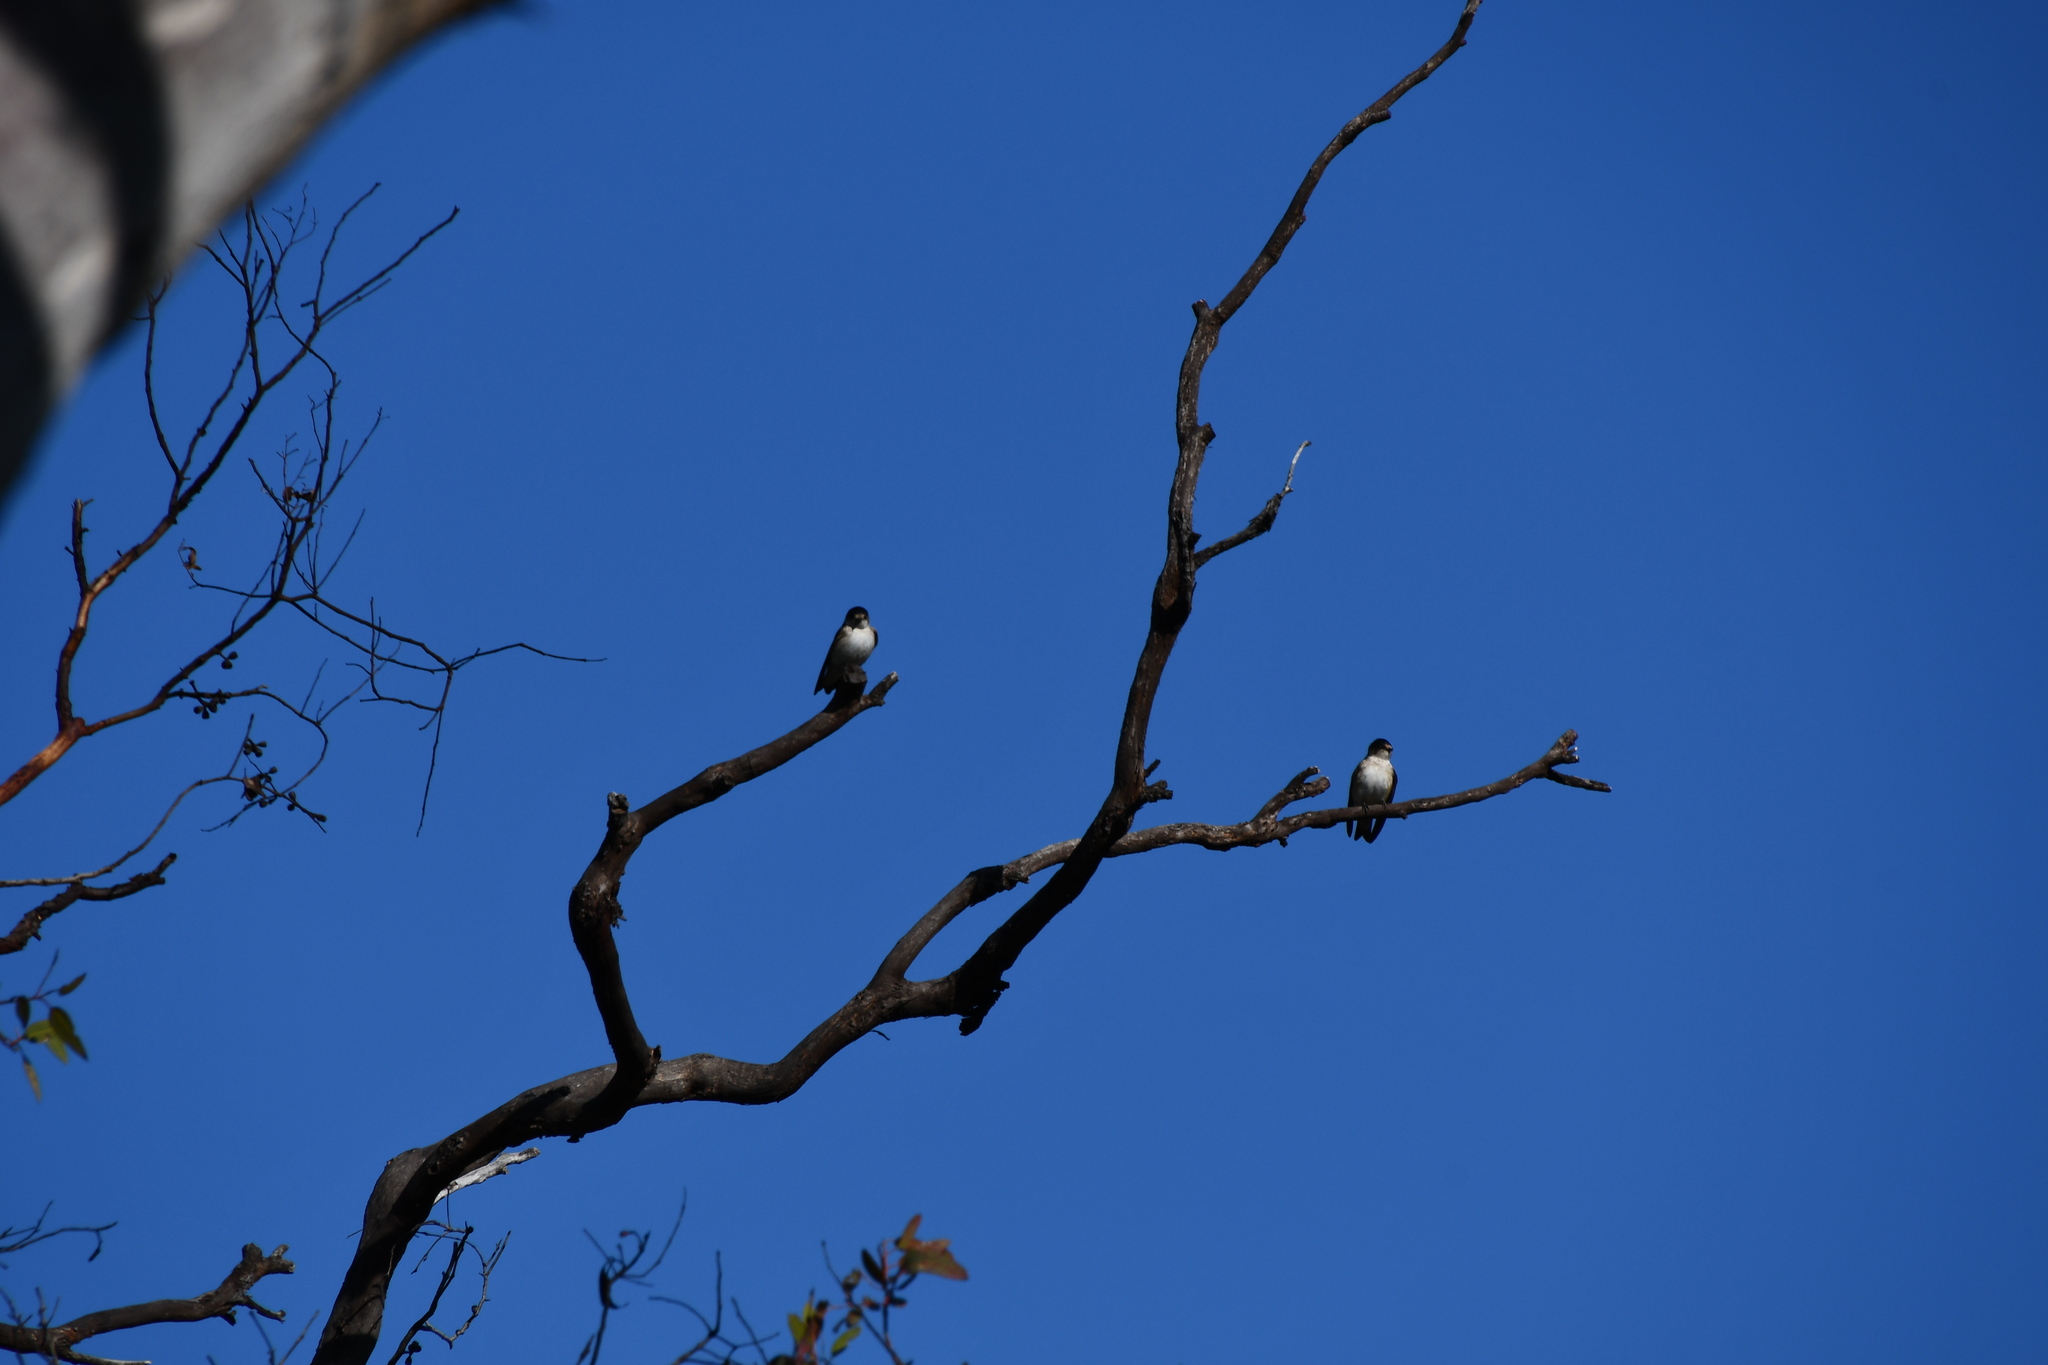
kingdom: Animalia
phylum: Chordata
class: Aves
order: Passeriformes
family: Hirundinidae
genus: Petrochelidon
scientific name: Petrochelidon nigricans
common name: Tree martin
